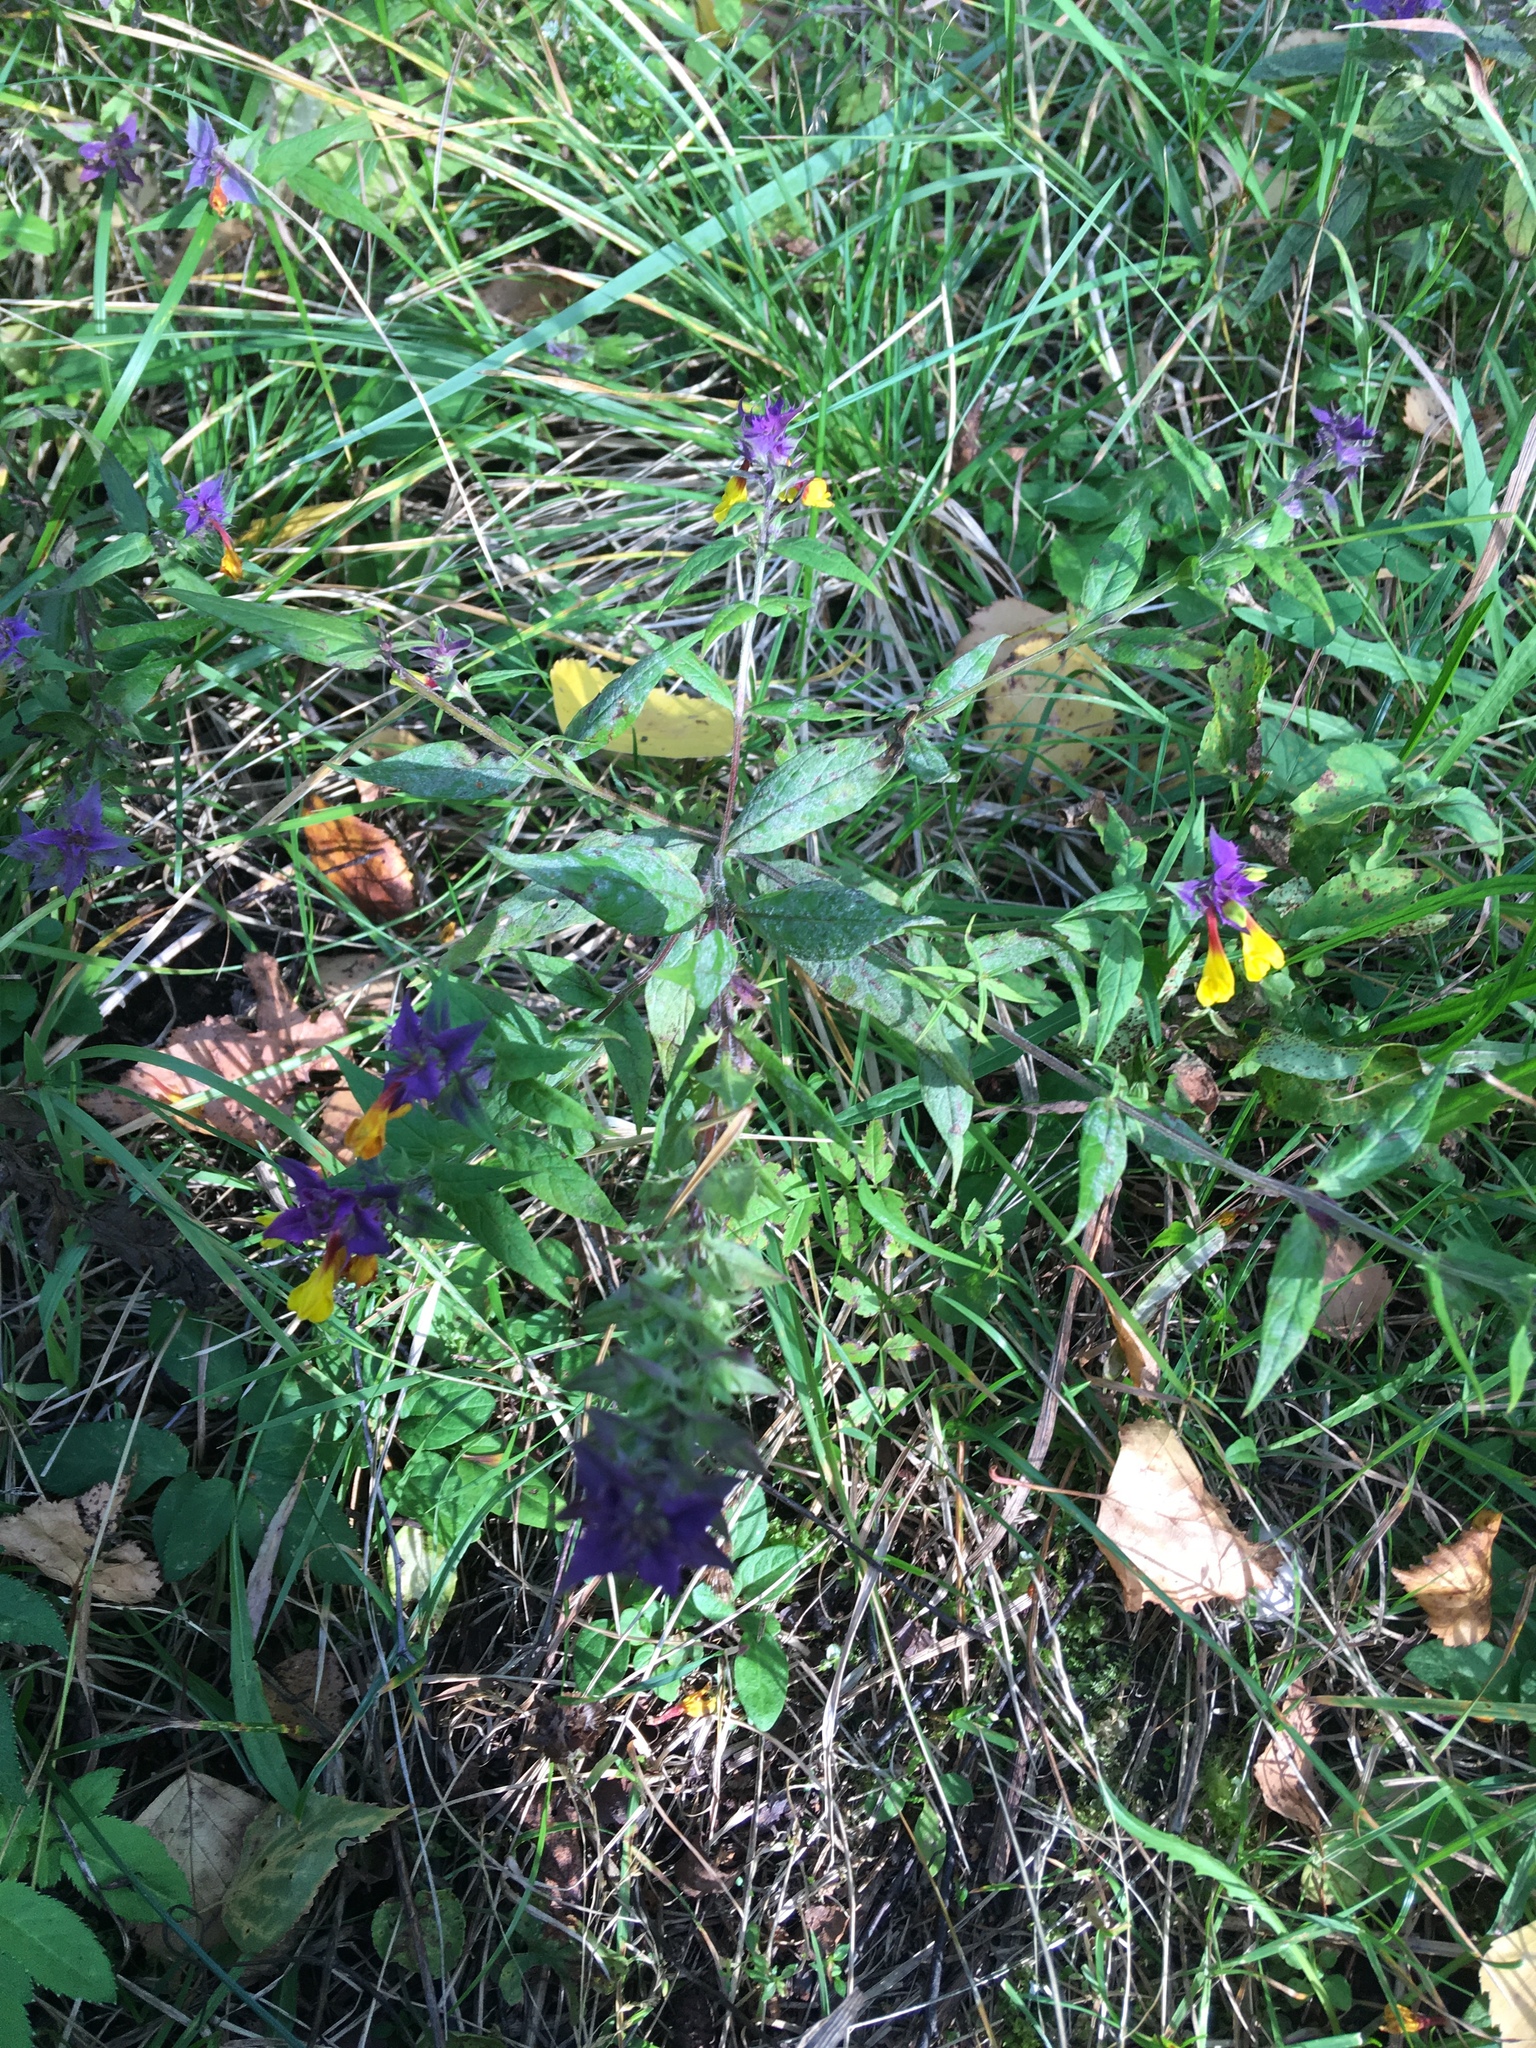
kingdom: Plantae
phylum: Tracheophyta
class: Magnoliopsida
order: Lamiales
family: Orobanchaceae
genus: Melampyrum
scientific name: Melampyrum nemorosum
